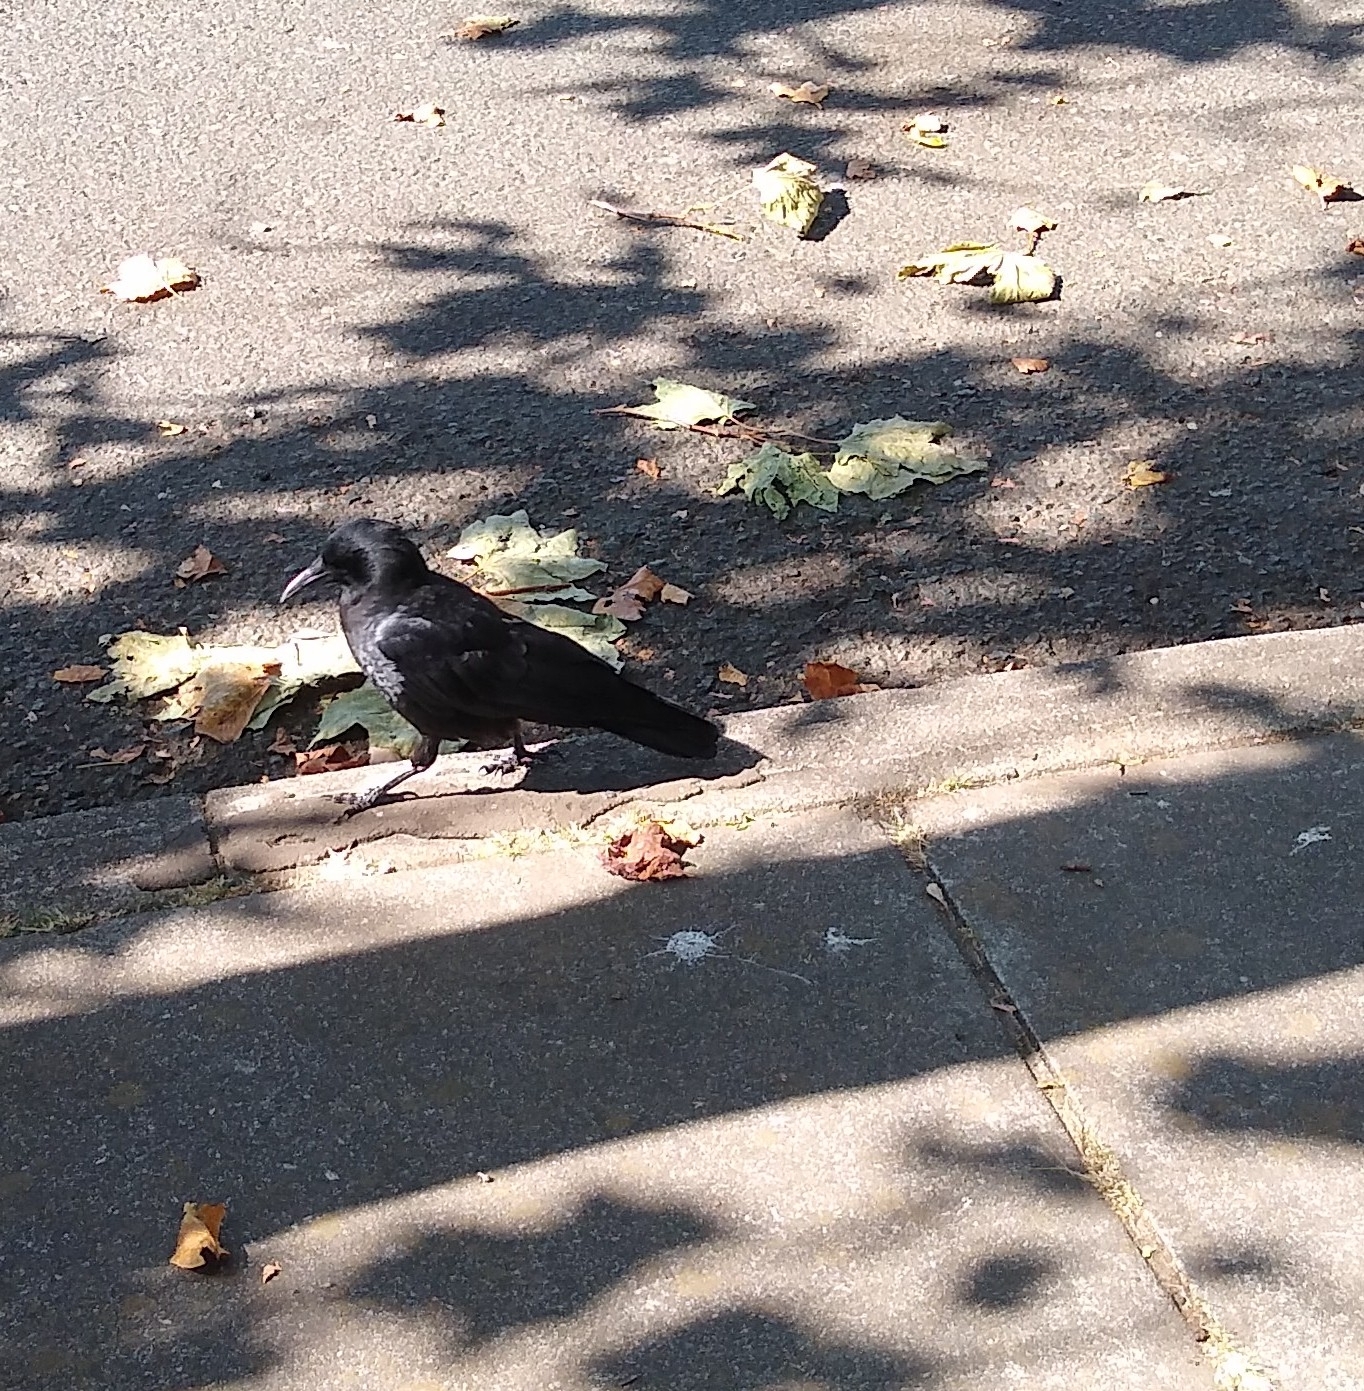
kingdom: Animalia
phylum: Chordata
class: Aves
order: Passeriformes
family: Corvidae
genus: Corvus
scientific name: Corvus brachyrhynchos
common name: American crow
